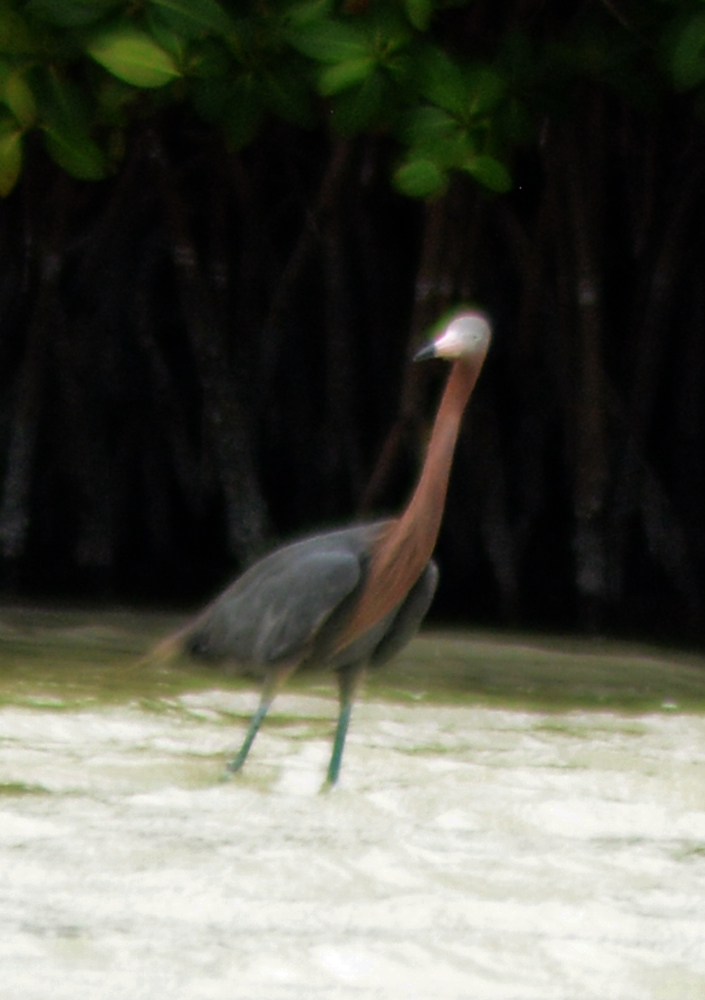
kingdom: Animalia
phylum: Chordata
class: Aves
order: Pelecaniformes
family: Ardeidae
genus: Egretta
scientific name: Egretta rufescens
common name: Reddish egret
